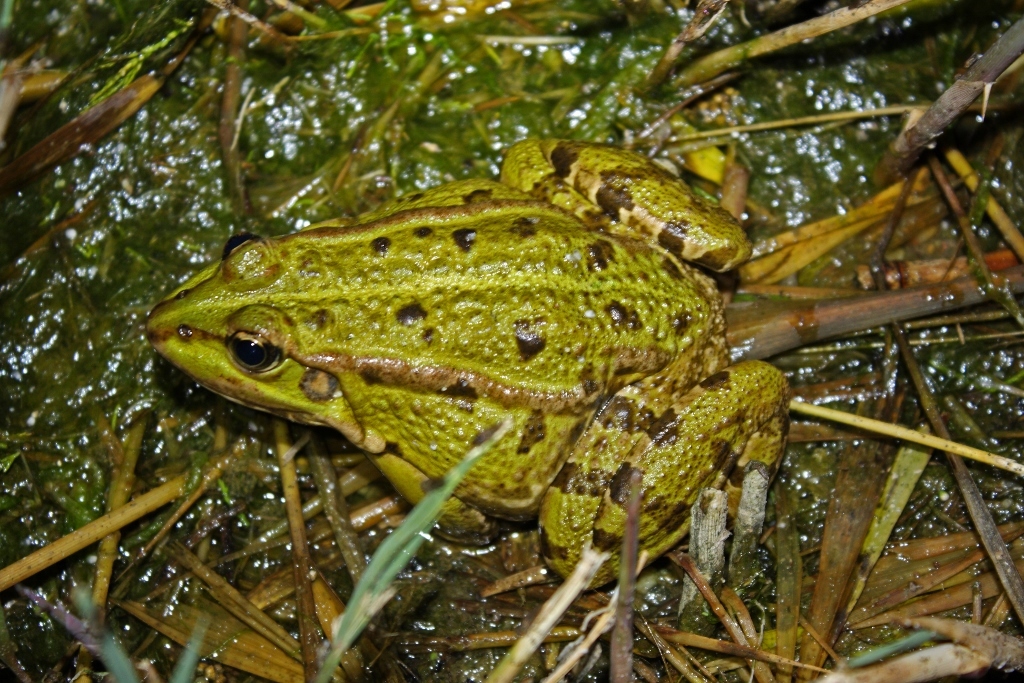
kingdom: Animalia
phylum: Chordata
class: Amphibia
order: Anura
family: Ranidae
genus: Pelophylax
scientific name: Pelophylax perezi
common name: Perez's frog
